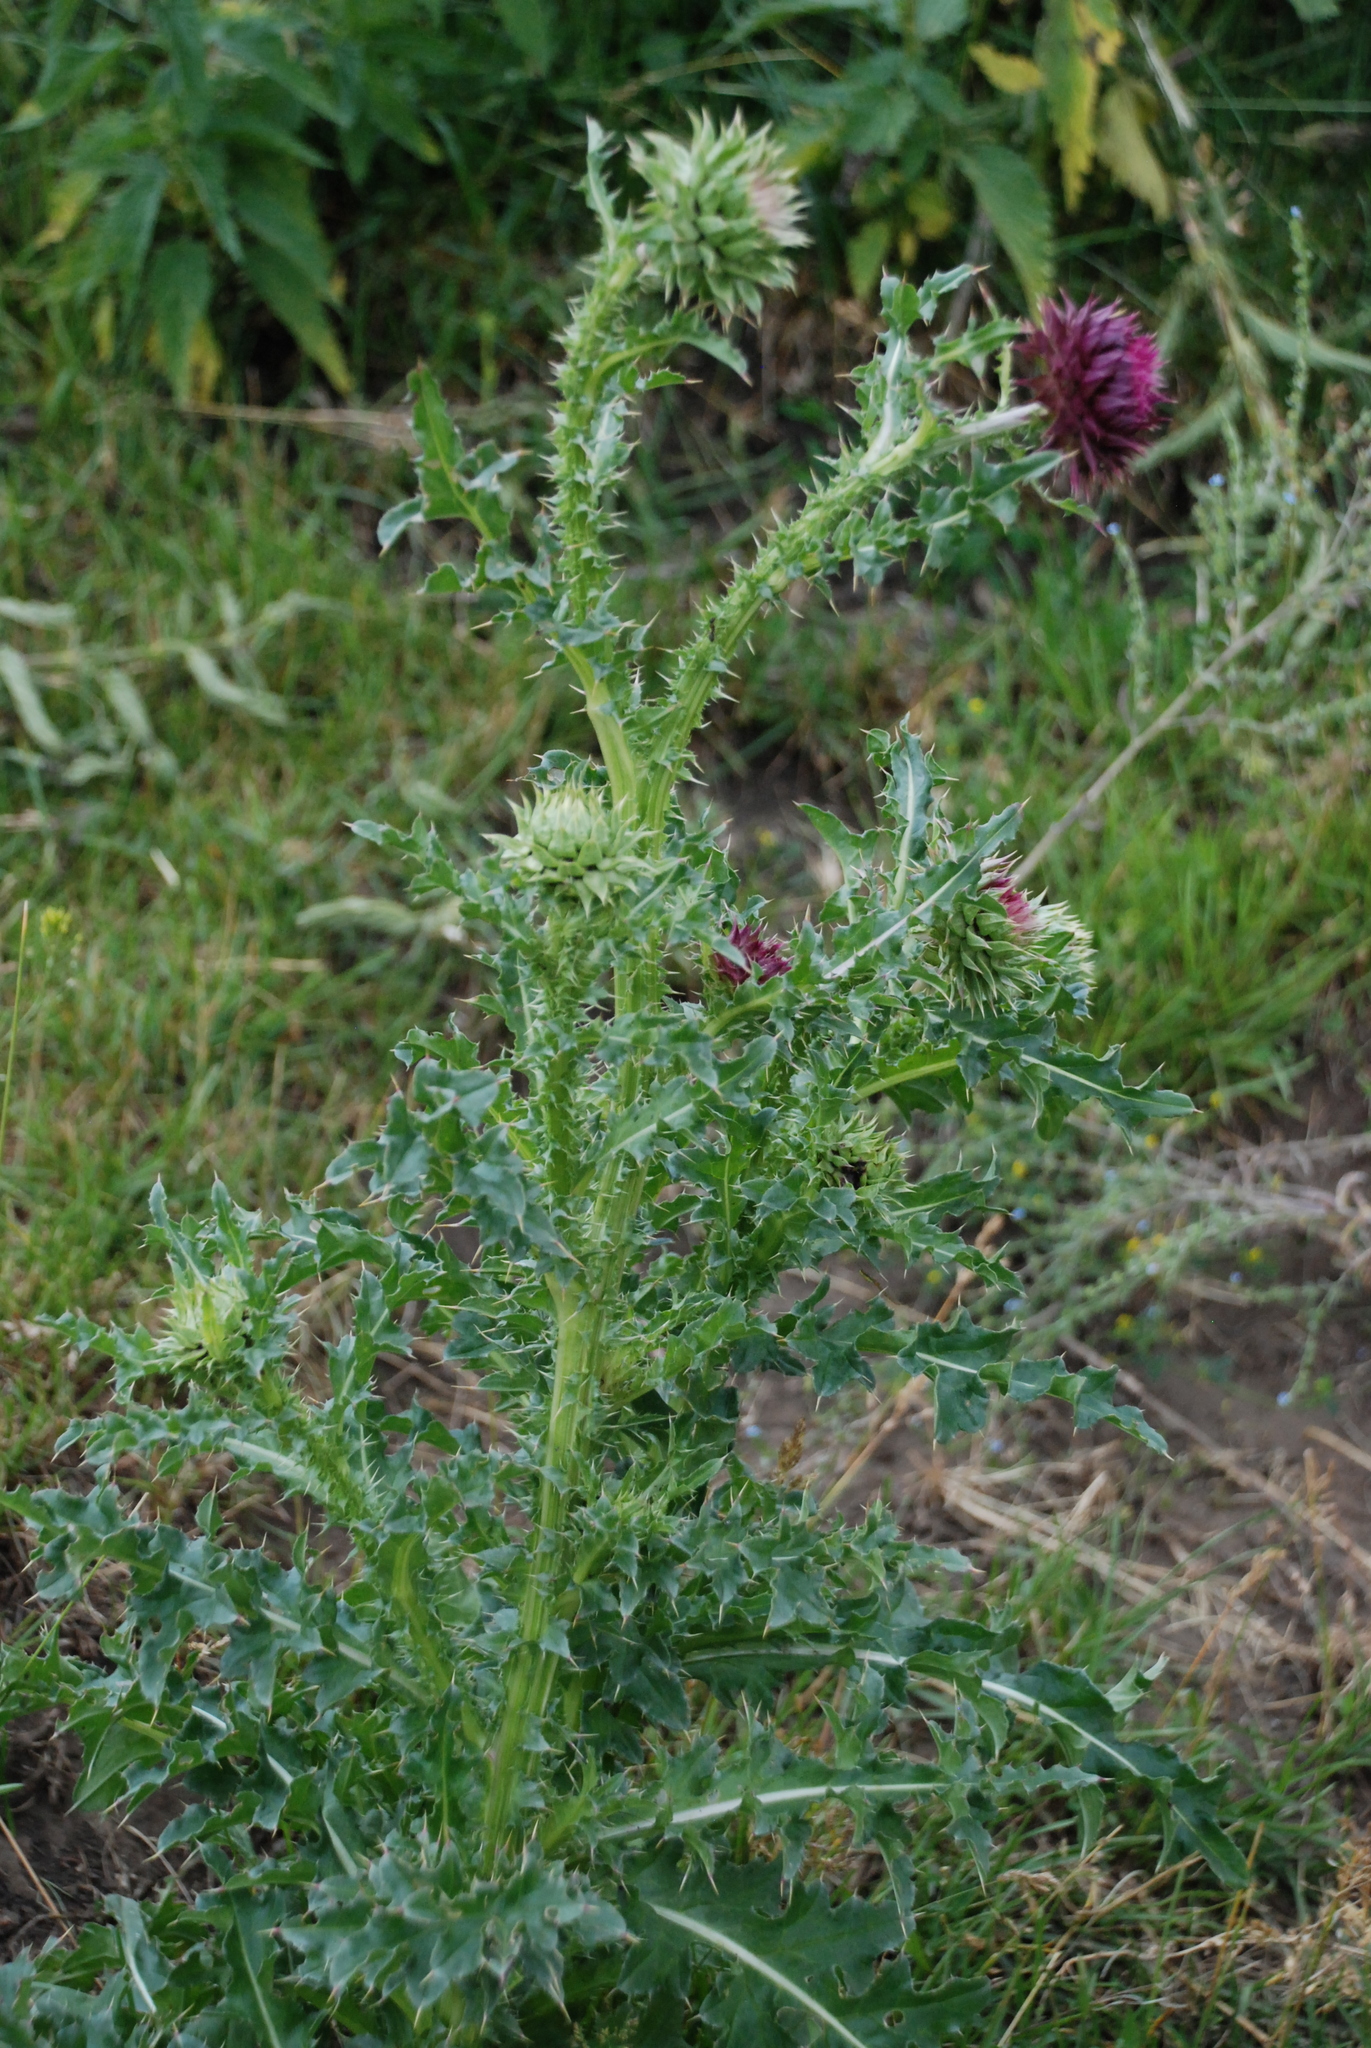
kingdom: Plantae
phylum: Tracheophyta
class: Magnoliopsida
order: Asterales
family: Asteraceae
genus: Carduus
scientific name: Carduus nutans
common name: Musk thistle
